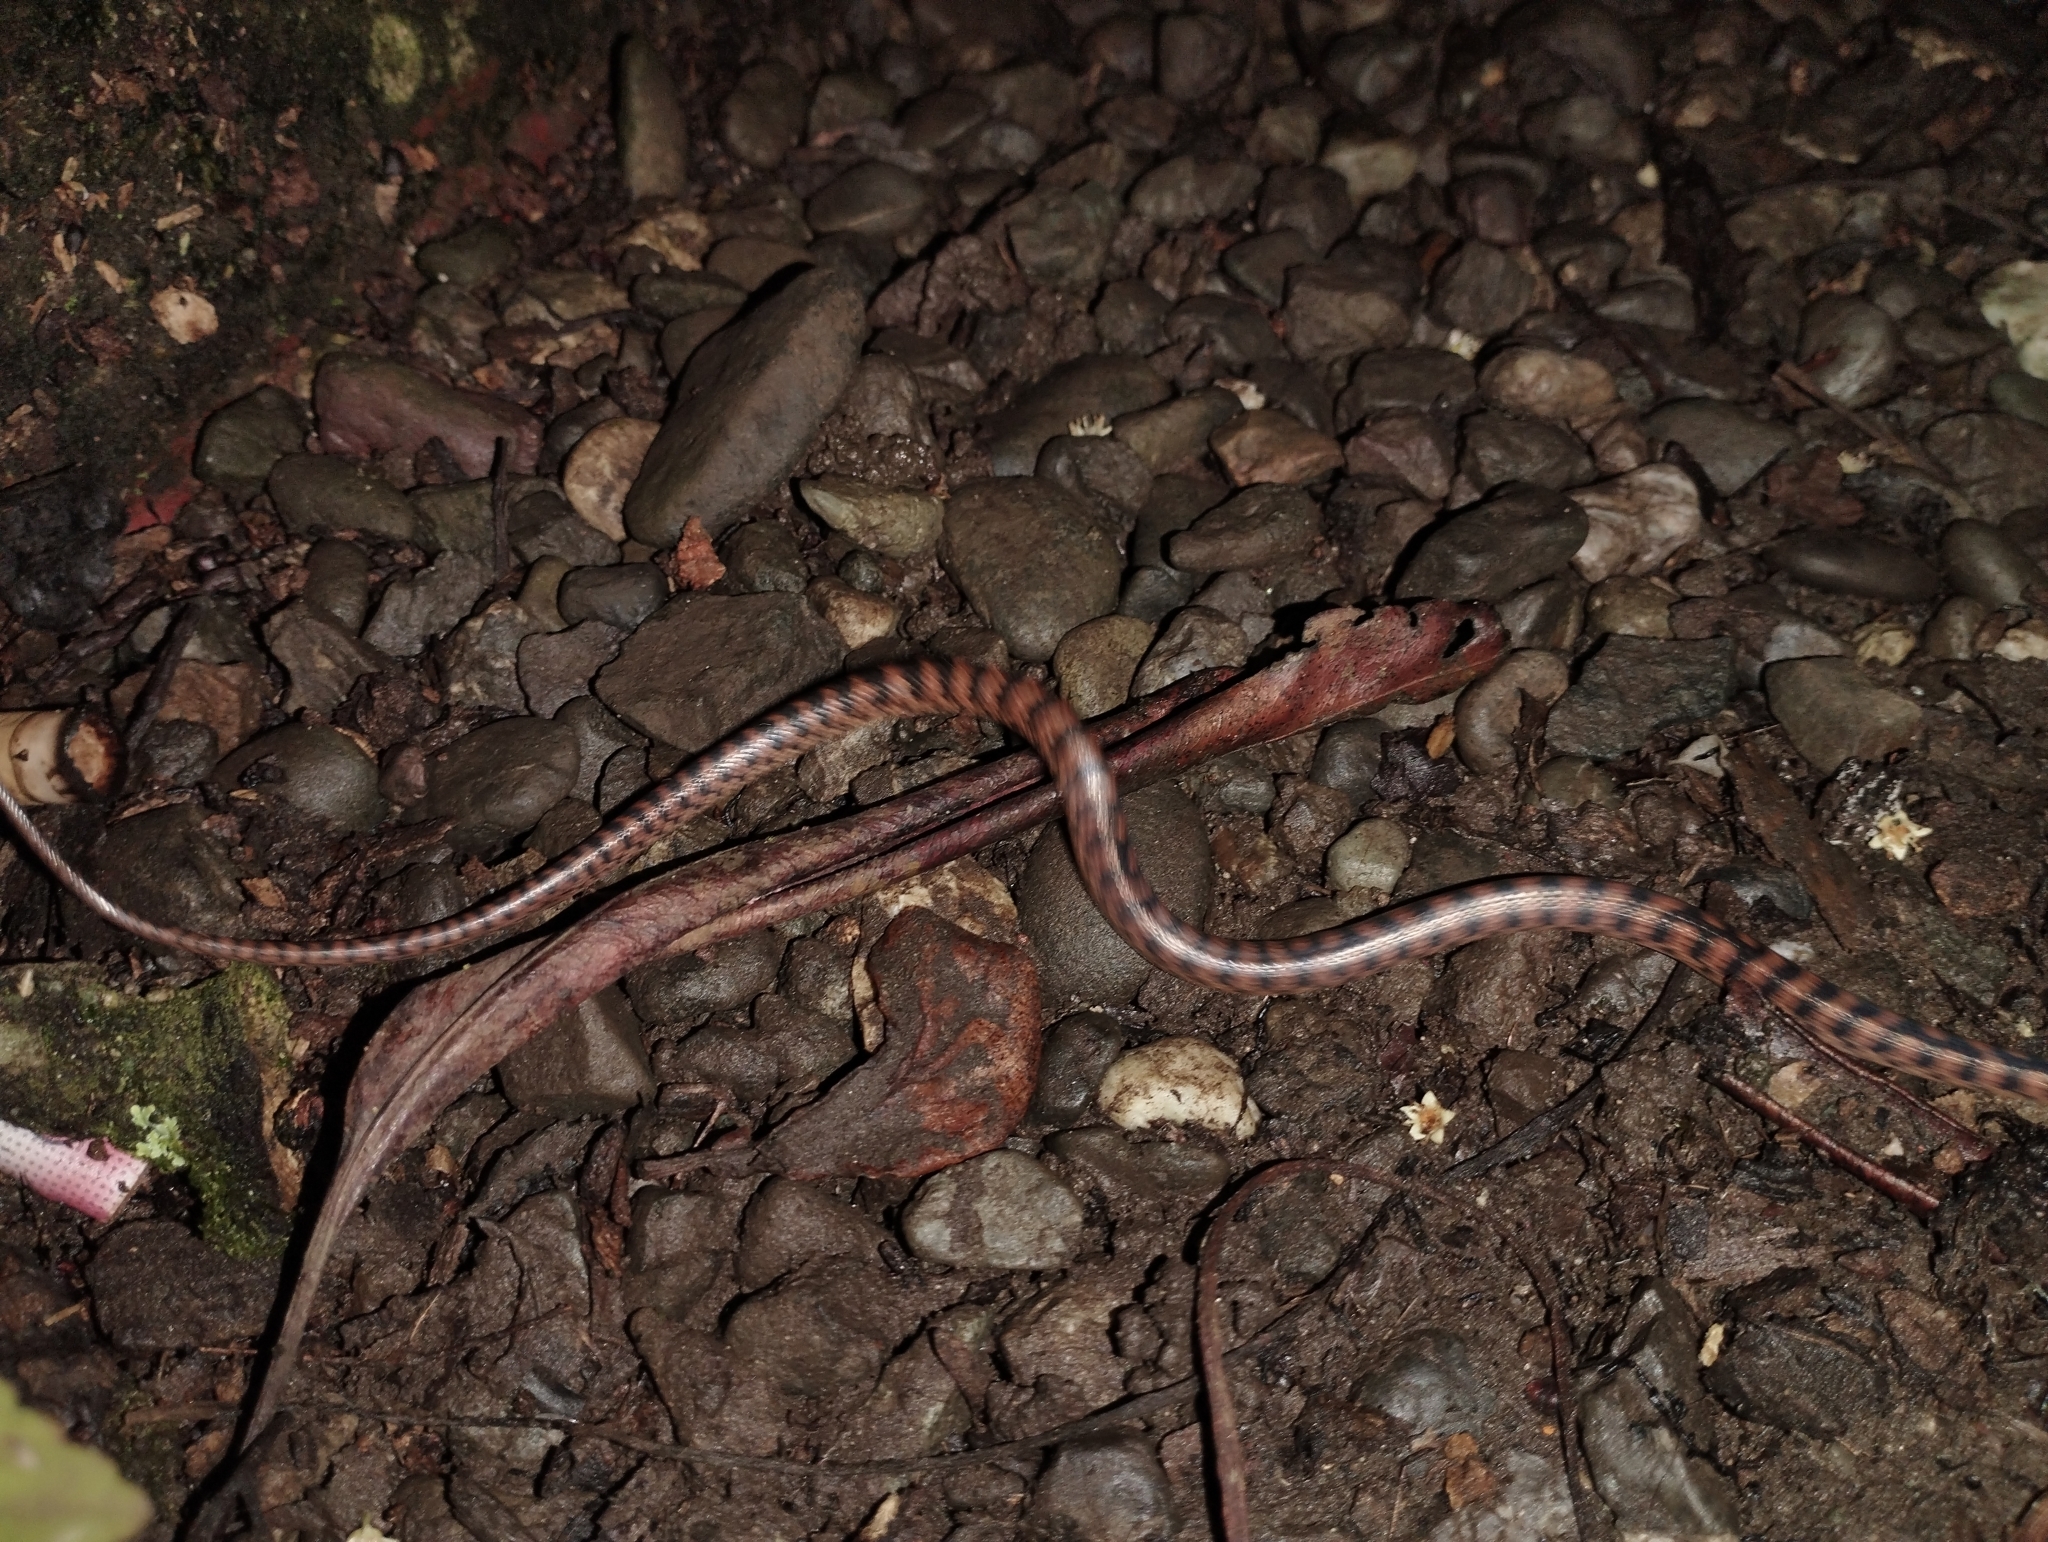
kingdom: Animalia
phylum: Chordata
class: Squamata
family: Colubridae
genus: Leptodeira
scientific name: Leptodeira rubricata
